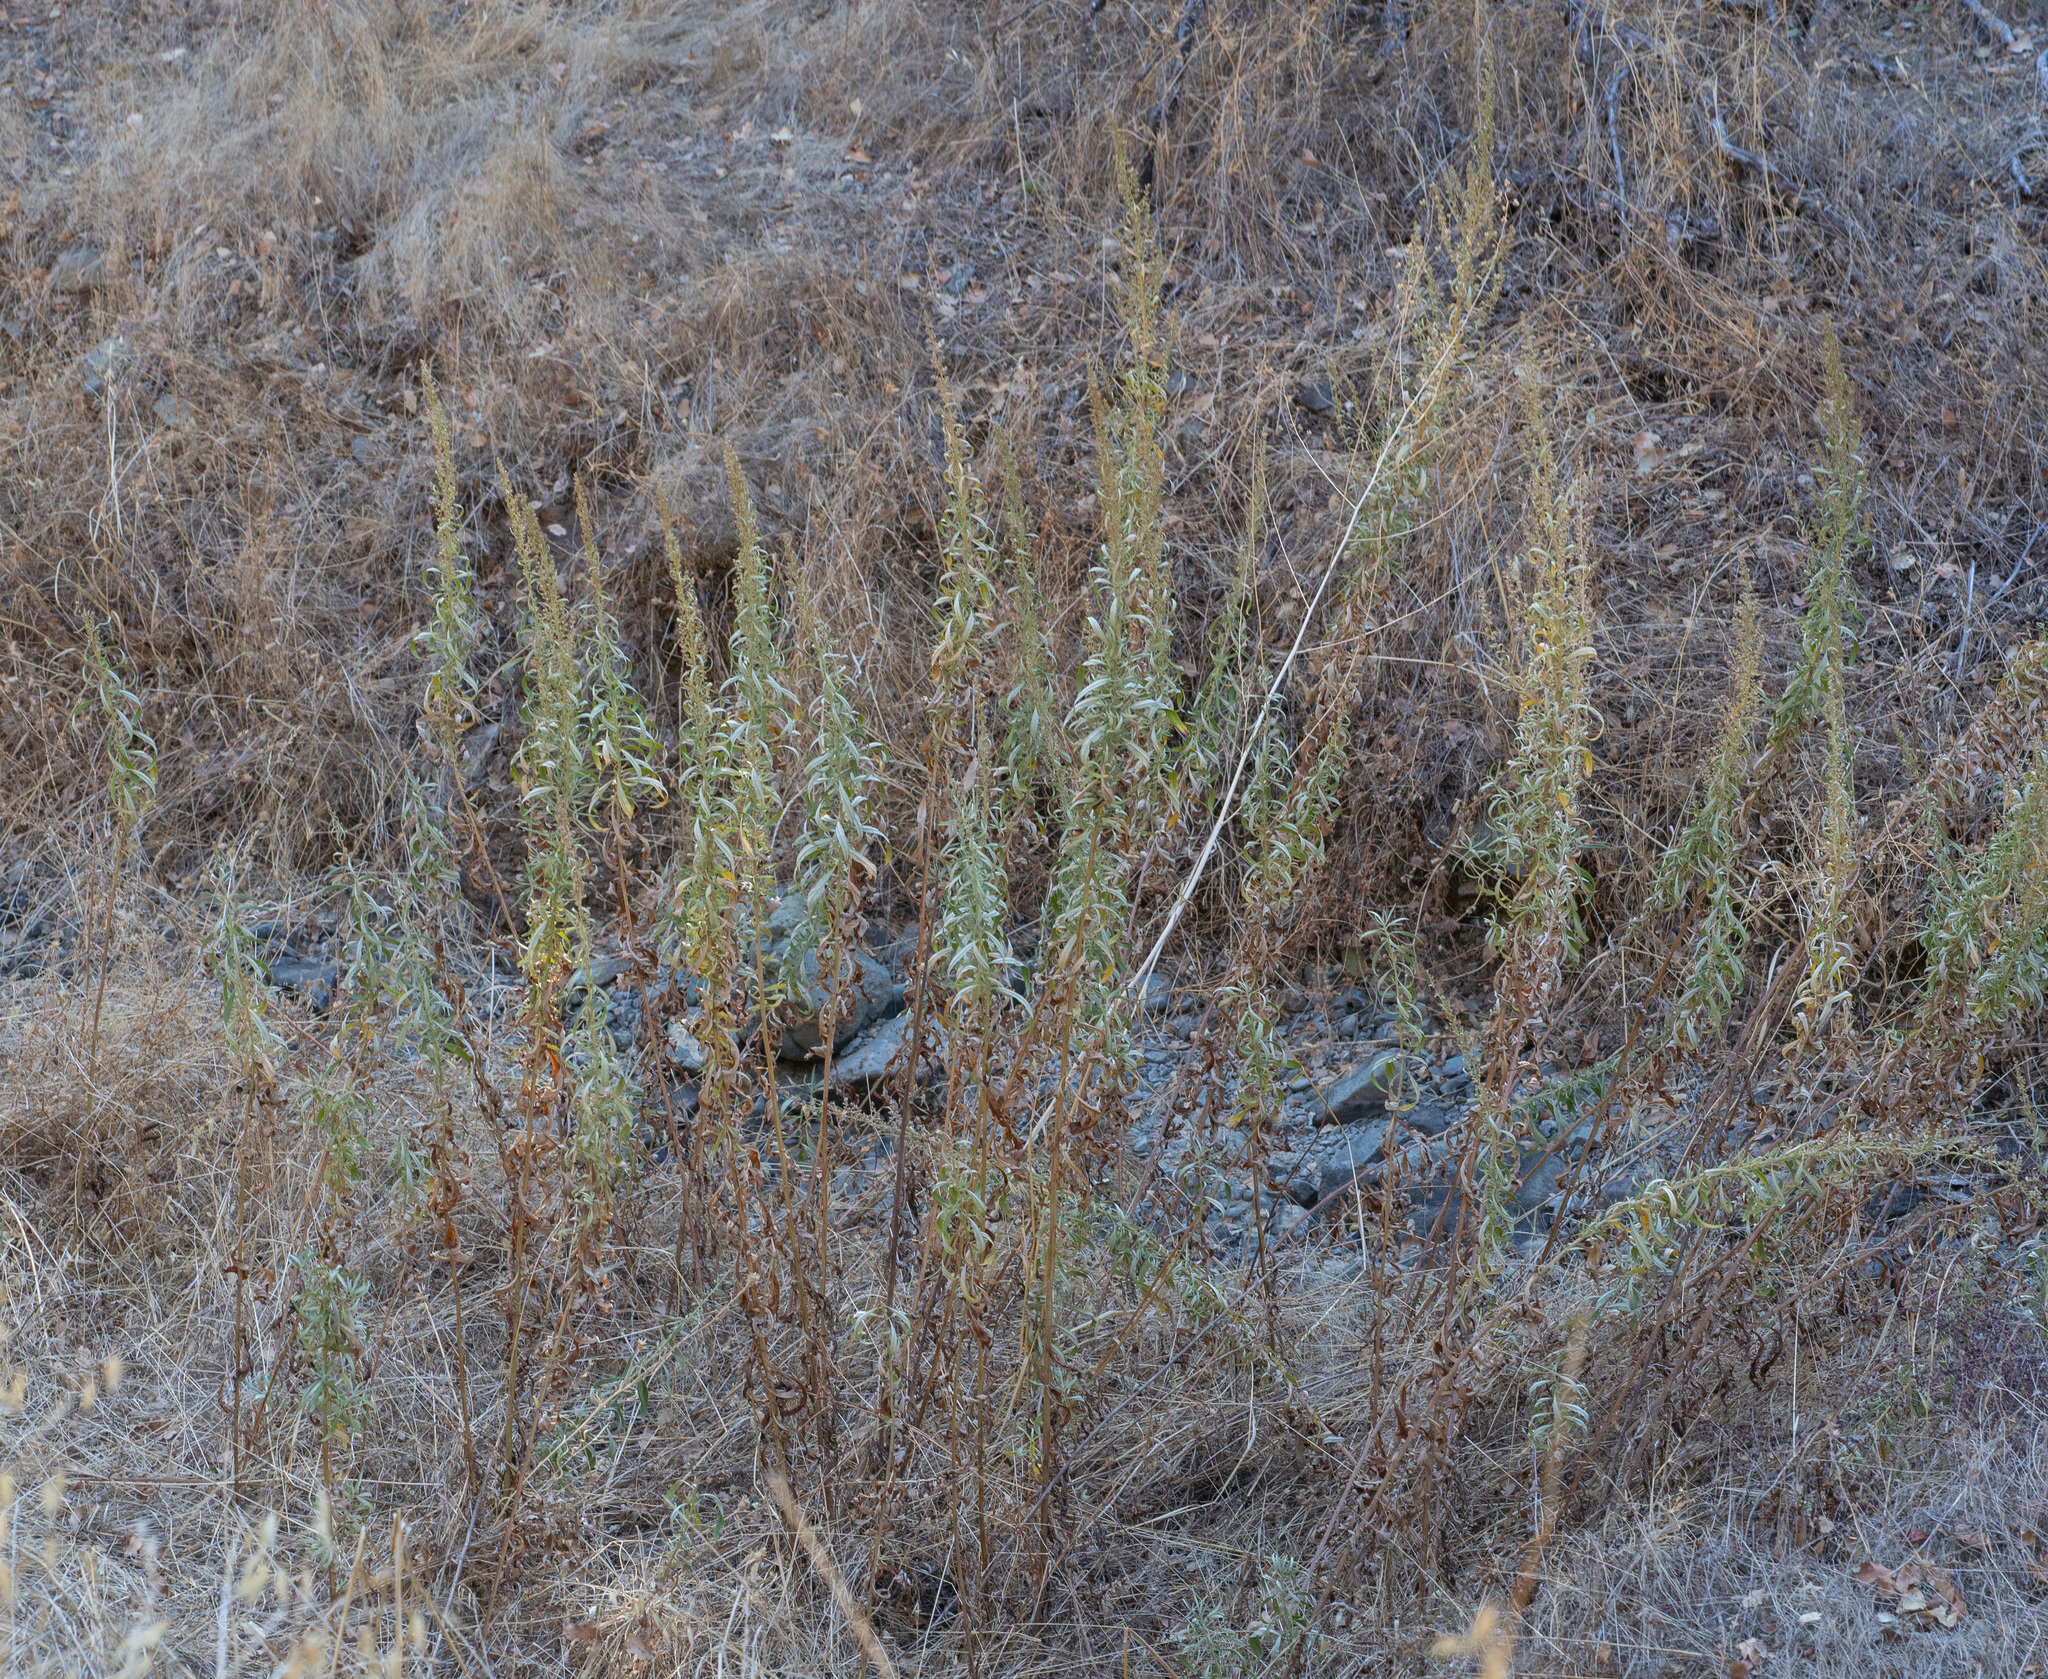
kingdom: Plantae
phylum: Tracheophyta
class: Magnoliopsida
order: Asterales
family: Asteraceae
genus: Artemisia
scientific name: Artemisia douglasiana
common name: Northwest mugwort
